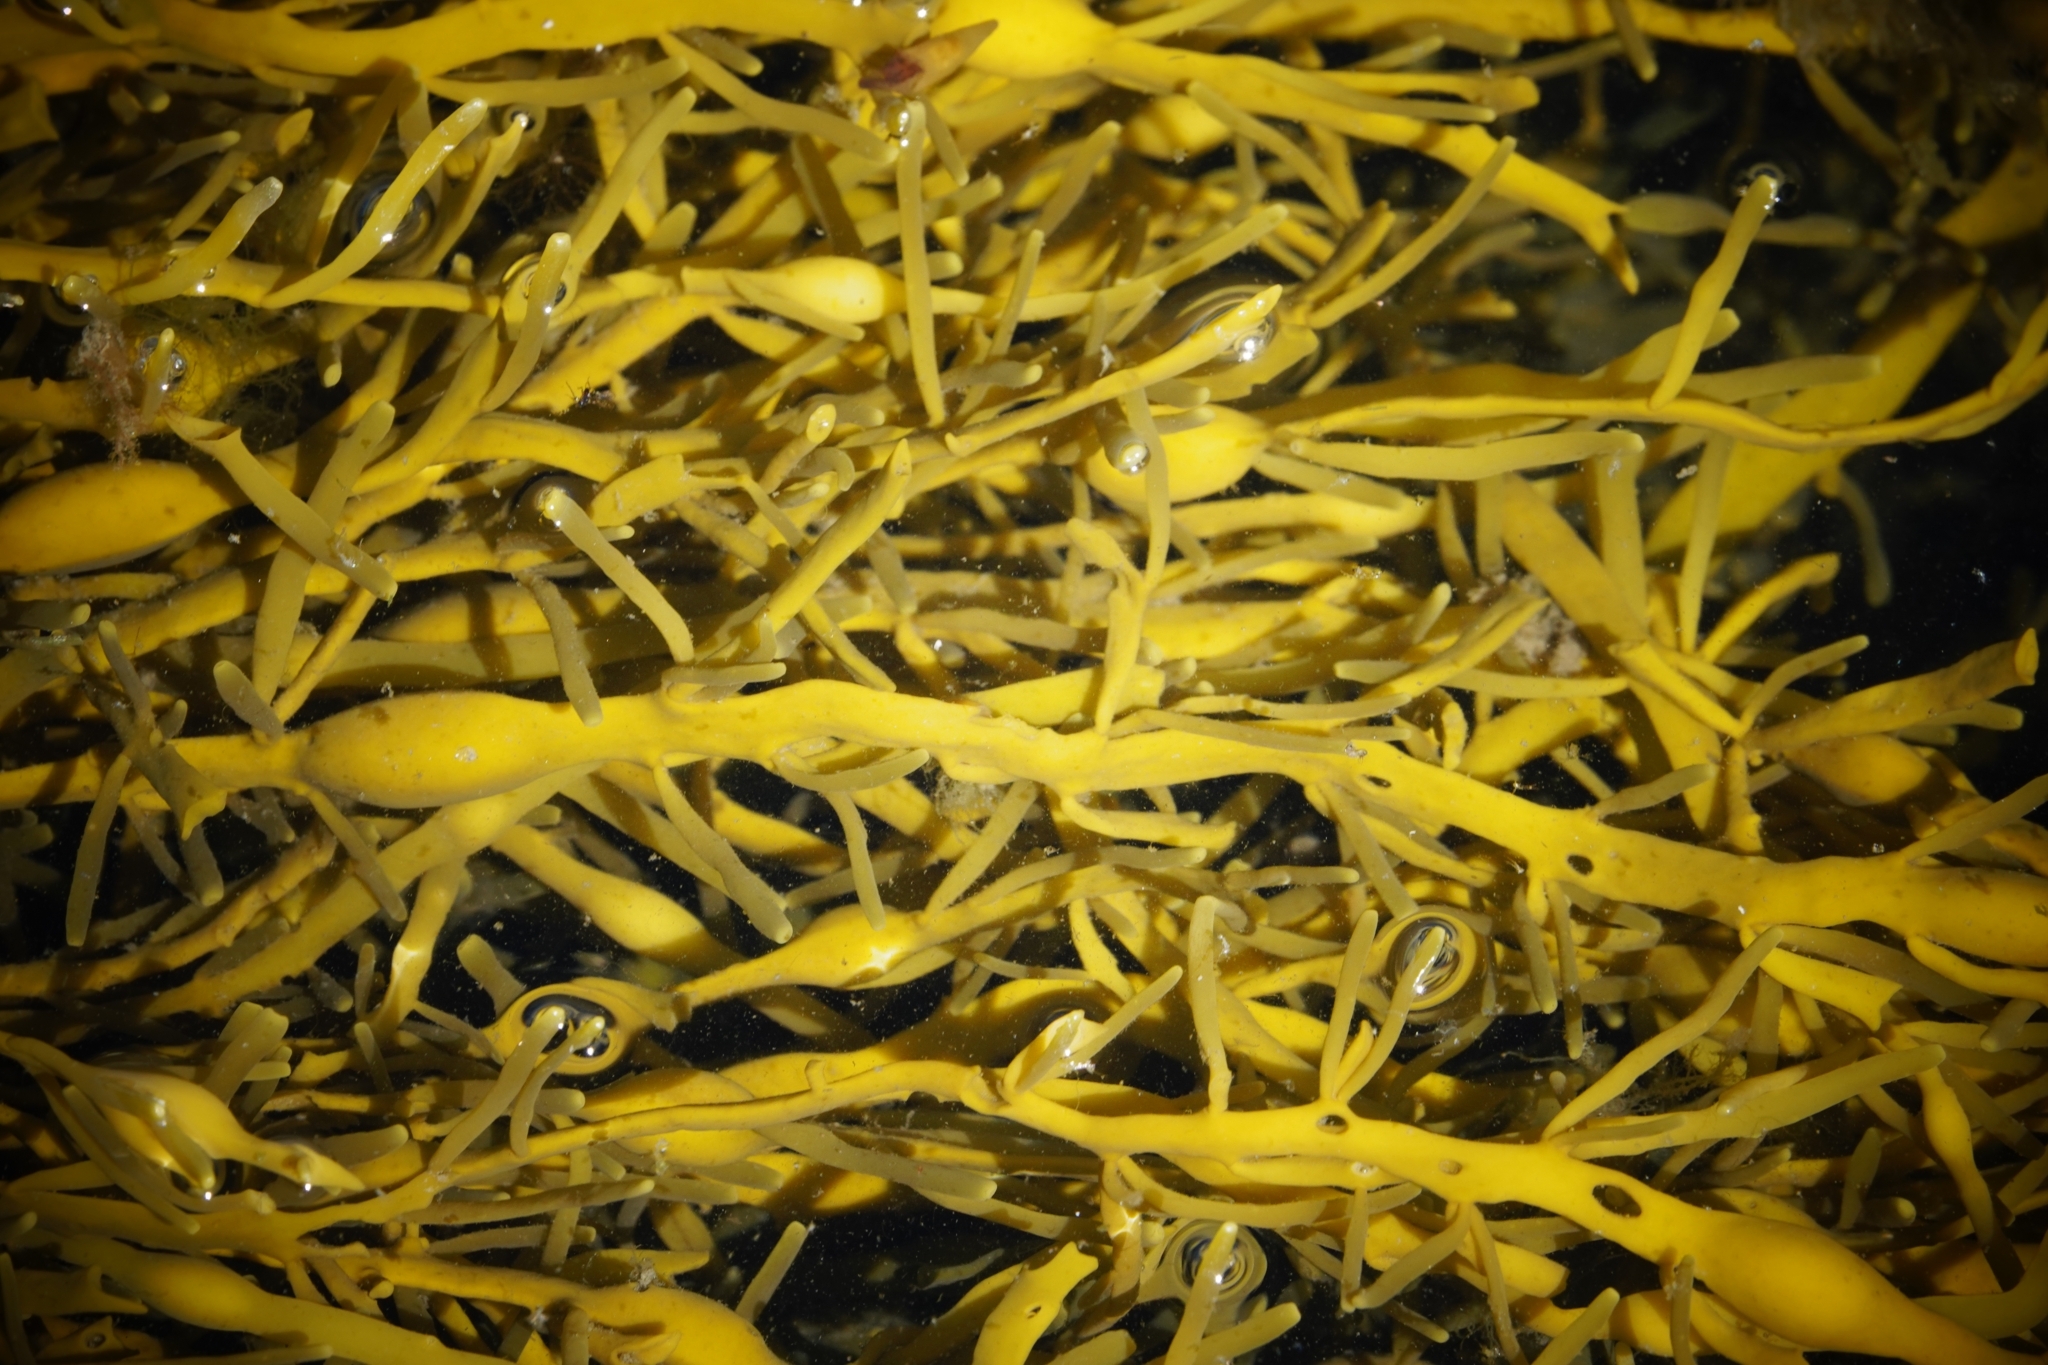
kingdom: Chromista
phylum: Ochrophyta
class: Phaeophyceae
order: Fucales
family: Fucaceae
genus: Ascophyllum
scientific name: Ascophyllum nodosum
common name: Knotted wrack
